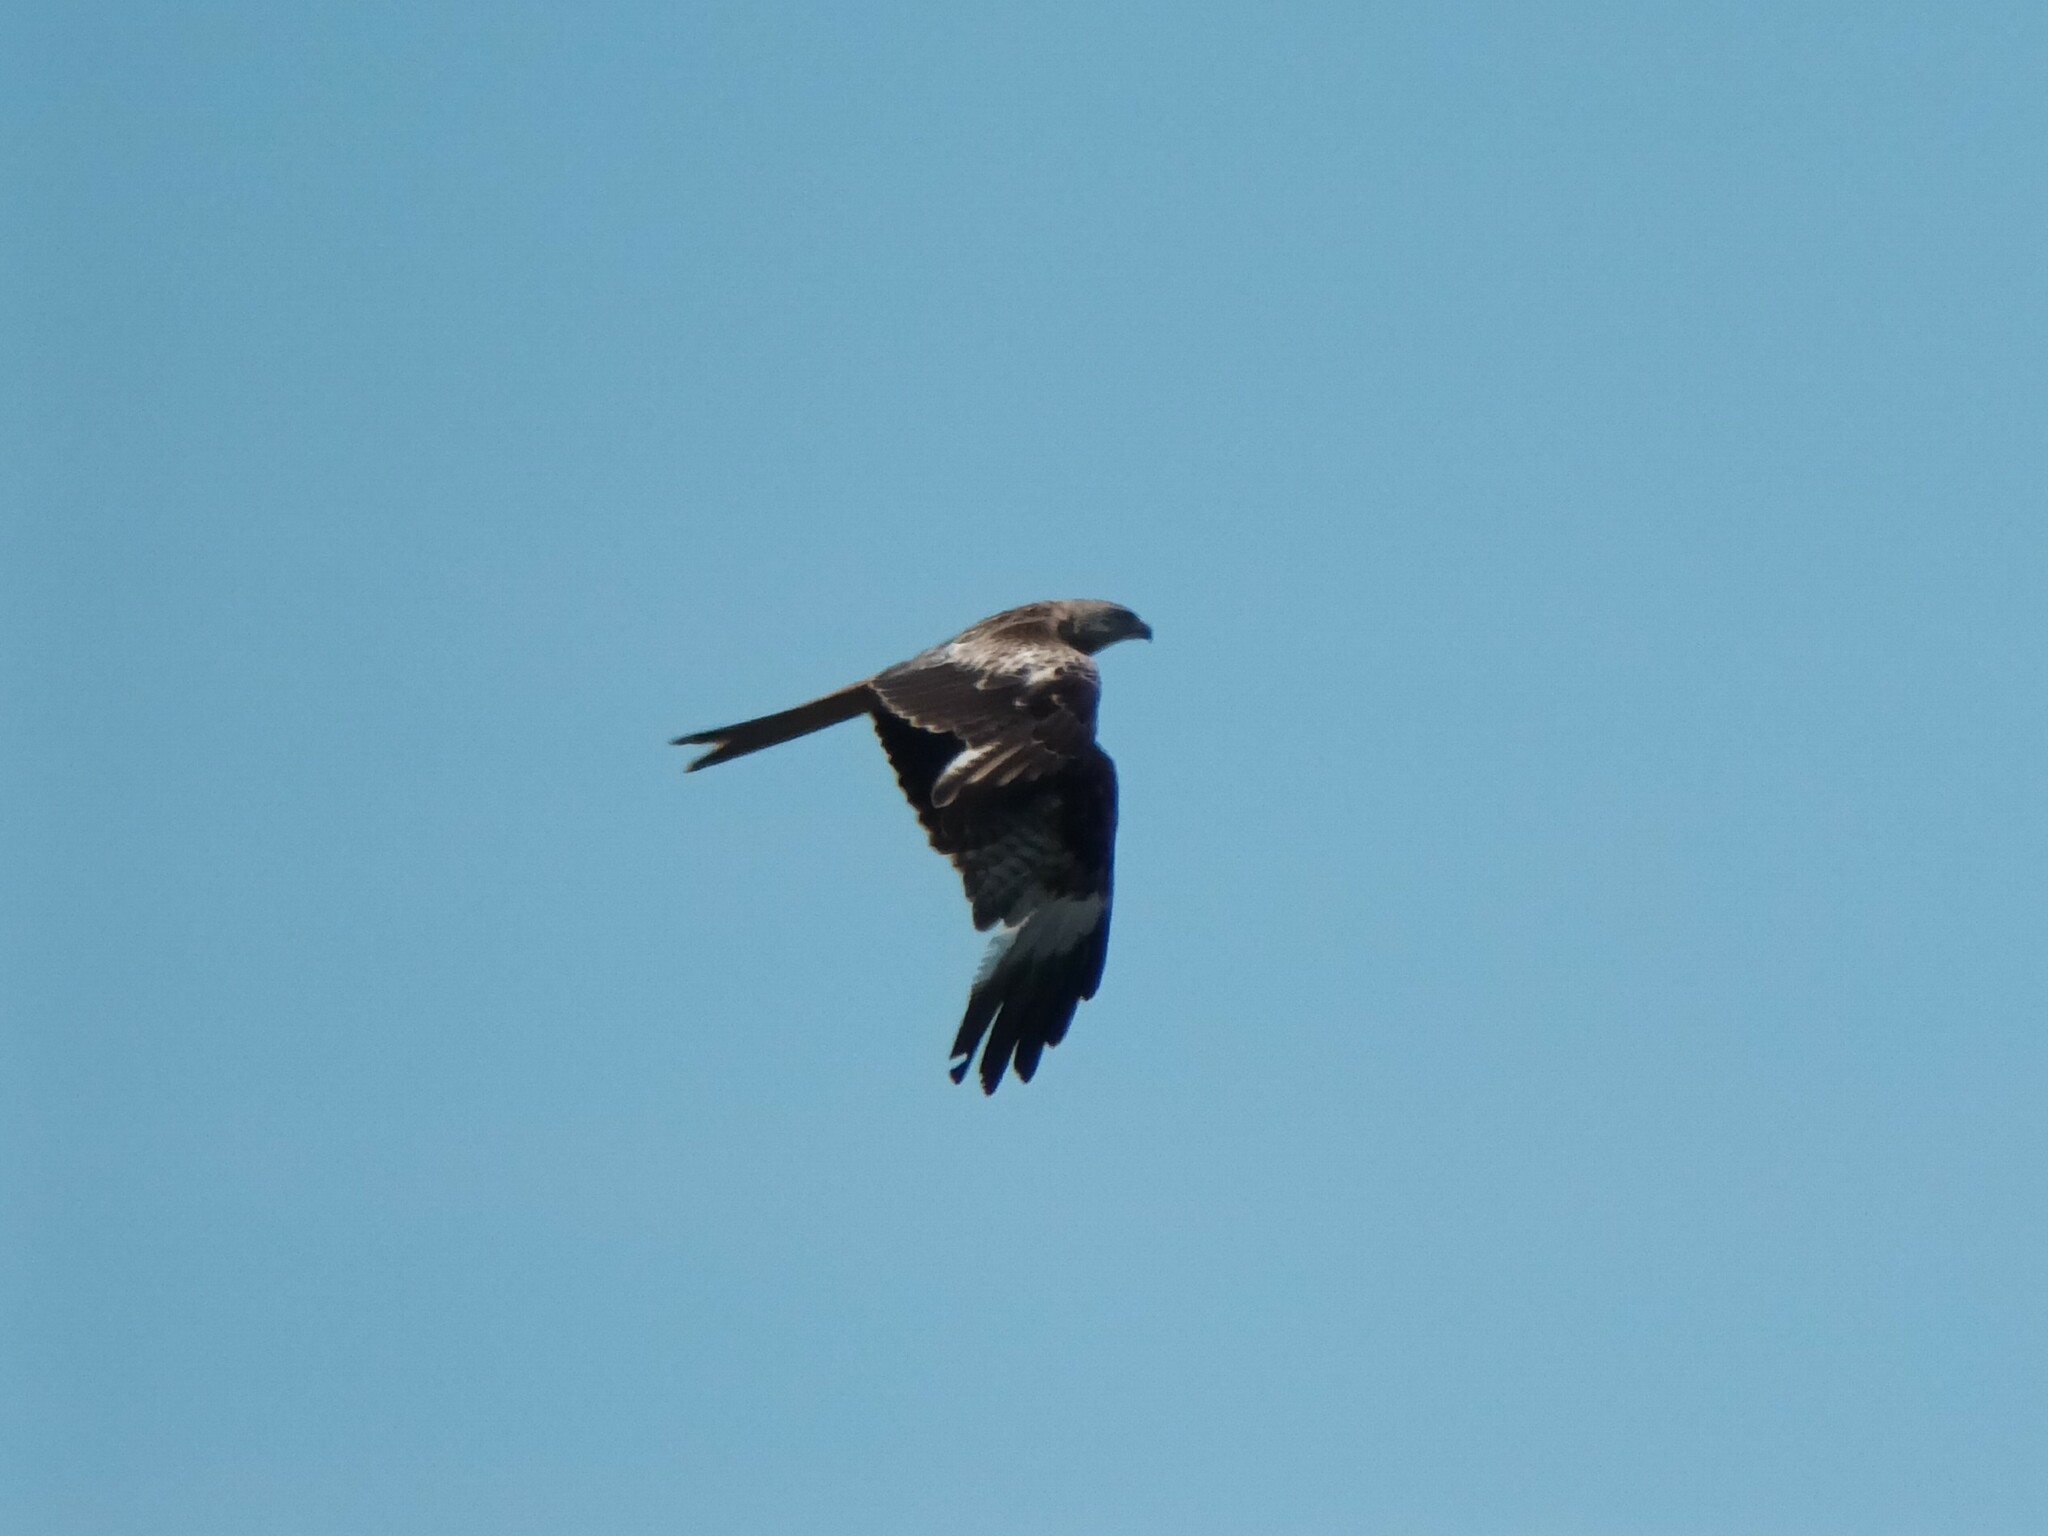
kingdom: Animalia
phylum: Chordata
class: Aves
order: Accipitriformes
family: Accipitridae
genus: Milvus
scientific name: Milvus milvus
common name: Red kite
